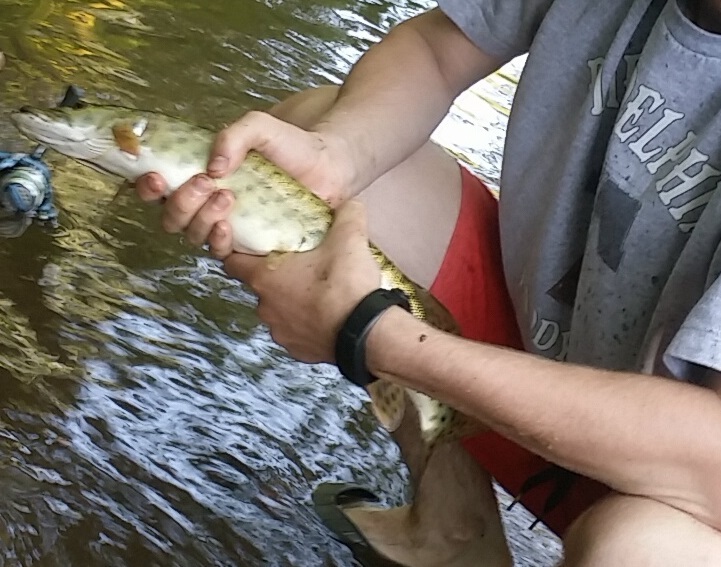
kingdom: Animalia
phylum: Chordata
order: Esociformes
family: Esocidae
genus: Esox
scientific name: Esox masquinongy
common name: Muskellunge
